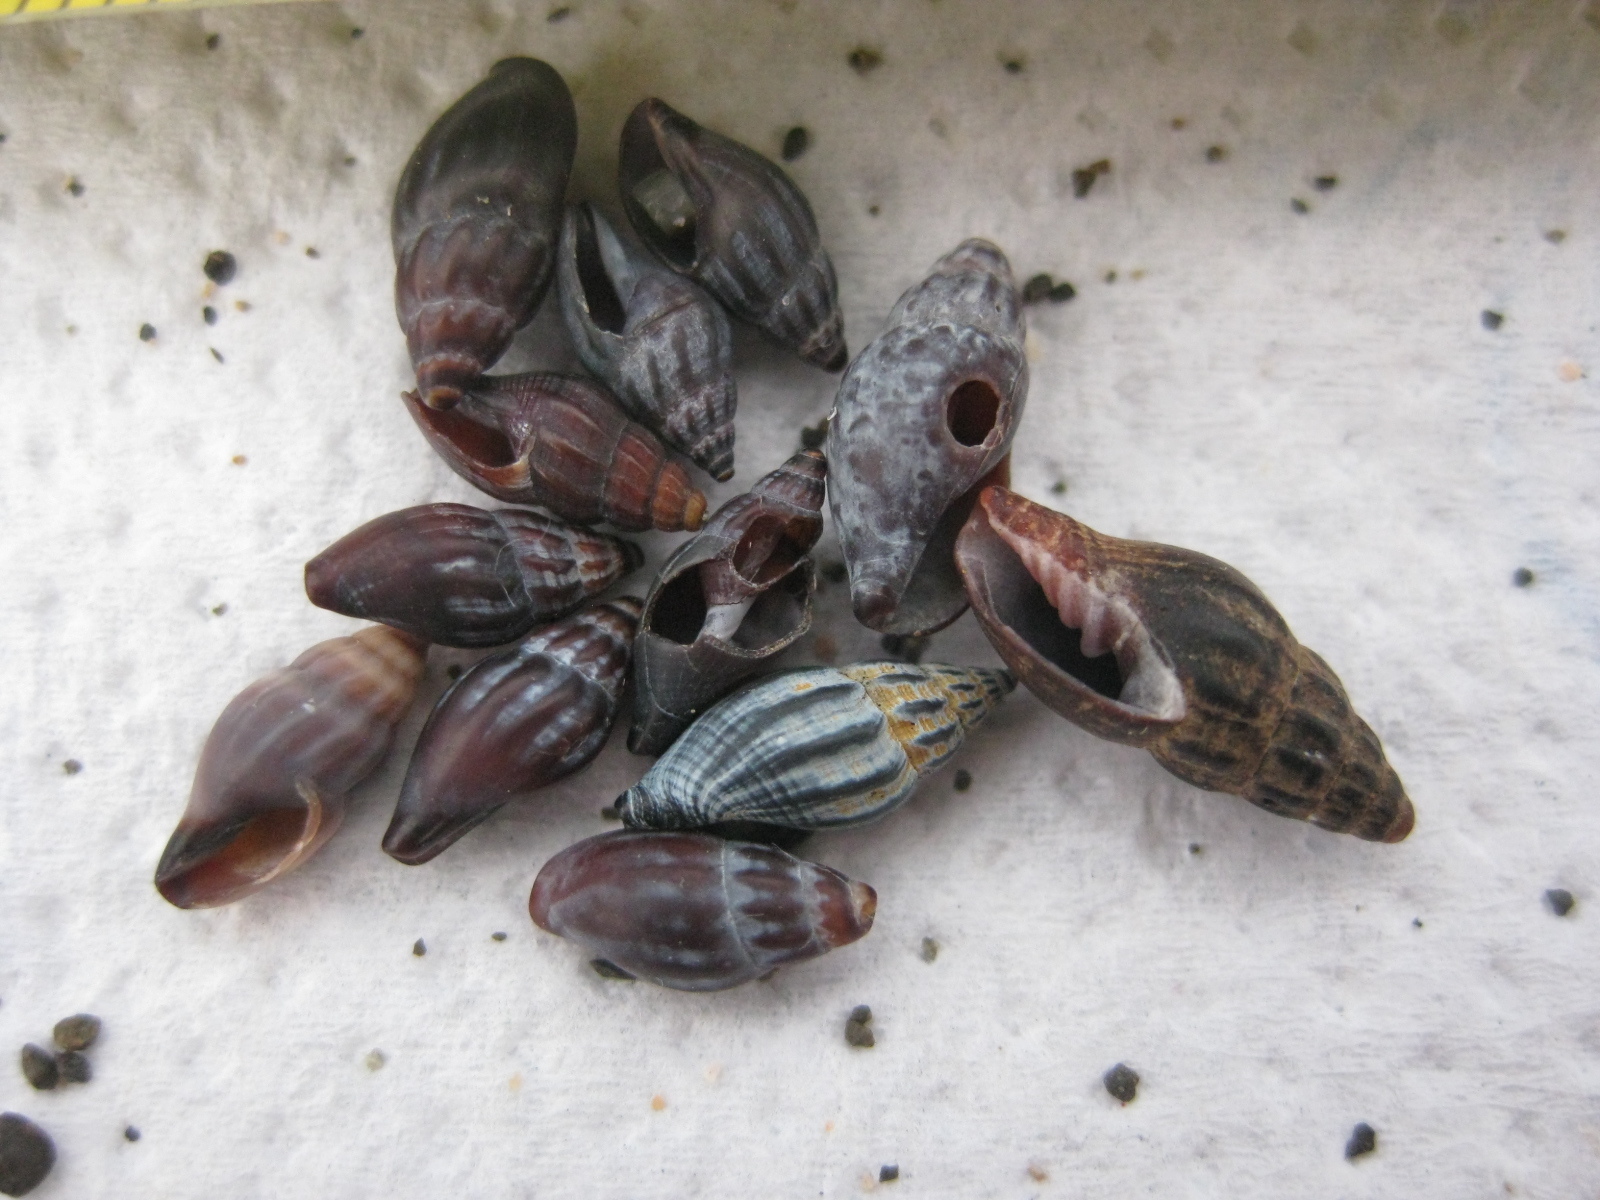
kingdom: Animalia
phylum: Mollusca
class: Gastropoda
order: Neogastropoda
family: Mangeliidae
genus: Neoguraleus
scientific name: Neoguraleus lyallensis
